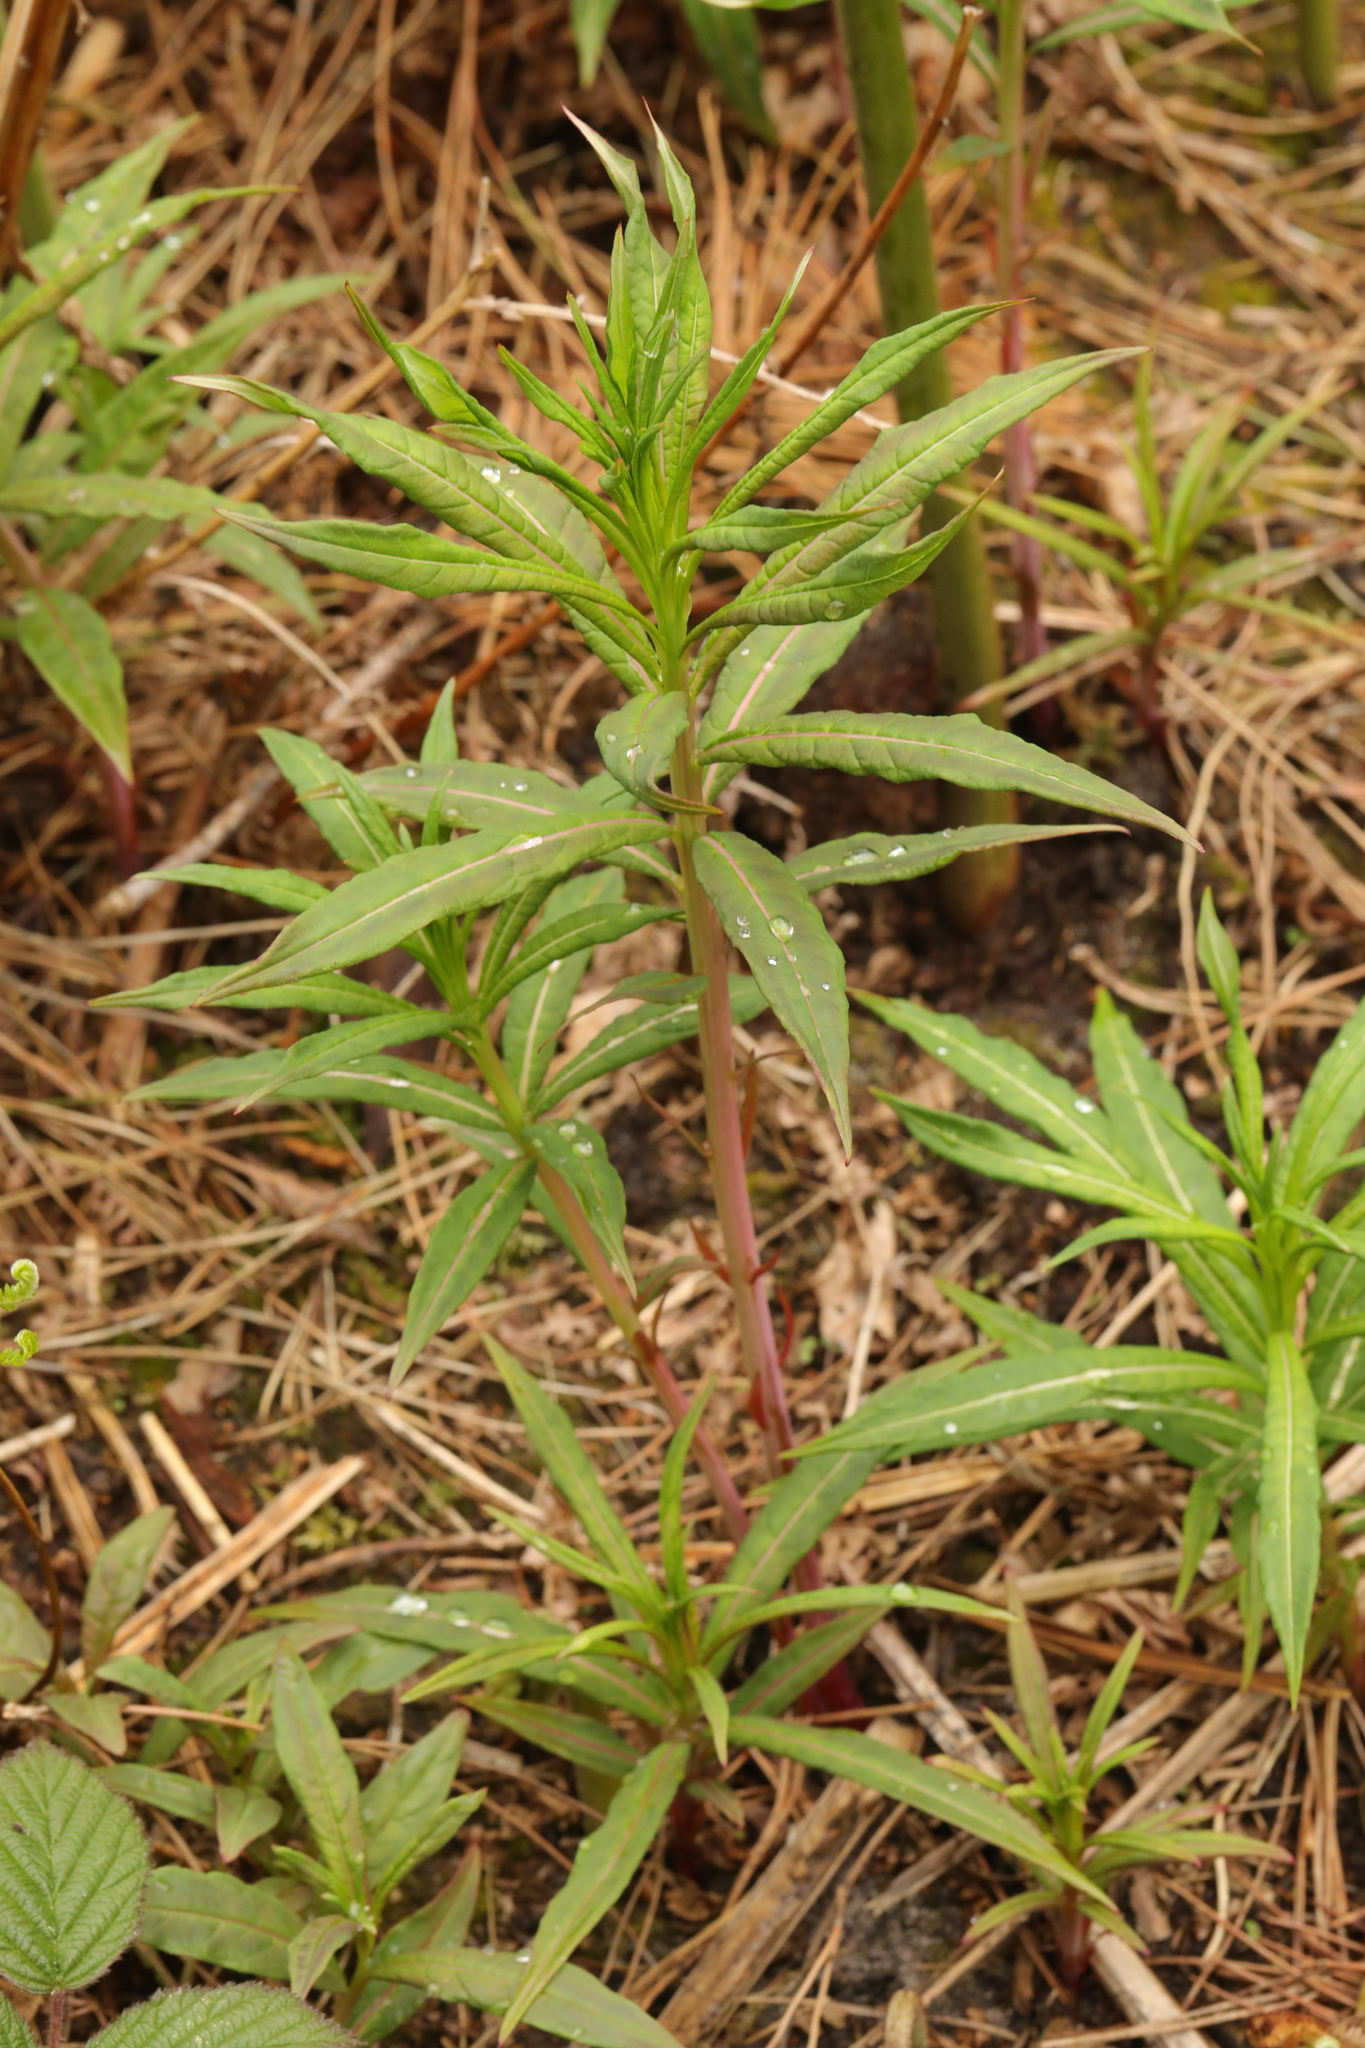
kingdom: Plantae
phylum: Tracheophyta
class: Magnoliopsida
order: Myrtales
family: Onagraceae
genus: Chamaenerion
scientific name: Chamaenerion angustifolium
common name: Fireweed
